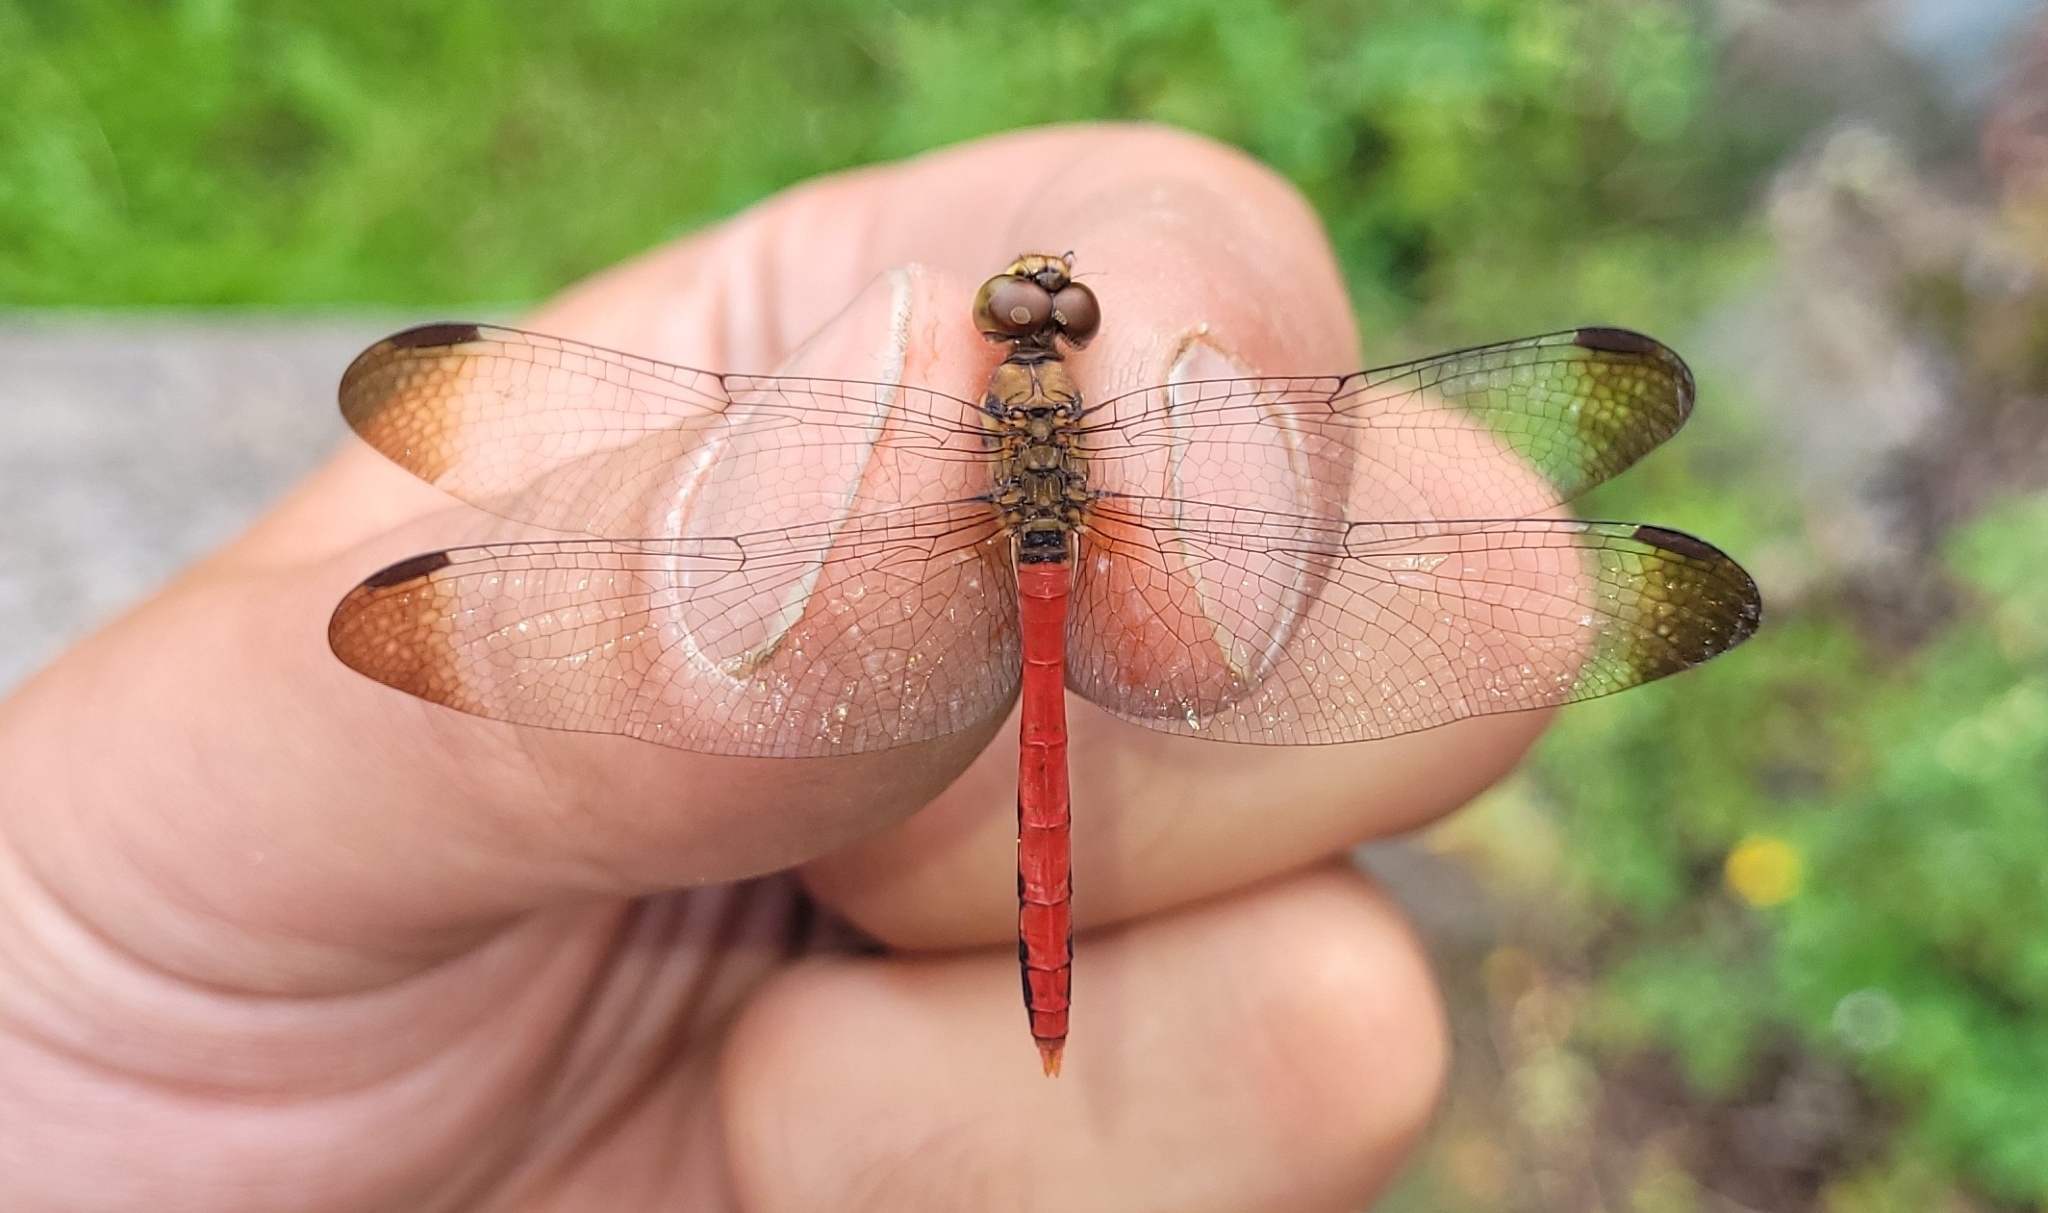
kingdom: Animalia
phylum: Arthropoda
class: Insecta
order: Odonata
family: Libellulidae
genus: Sympetrum
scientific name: Sympetrum risi
